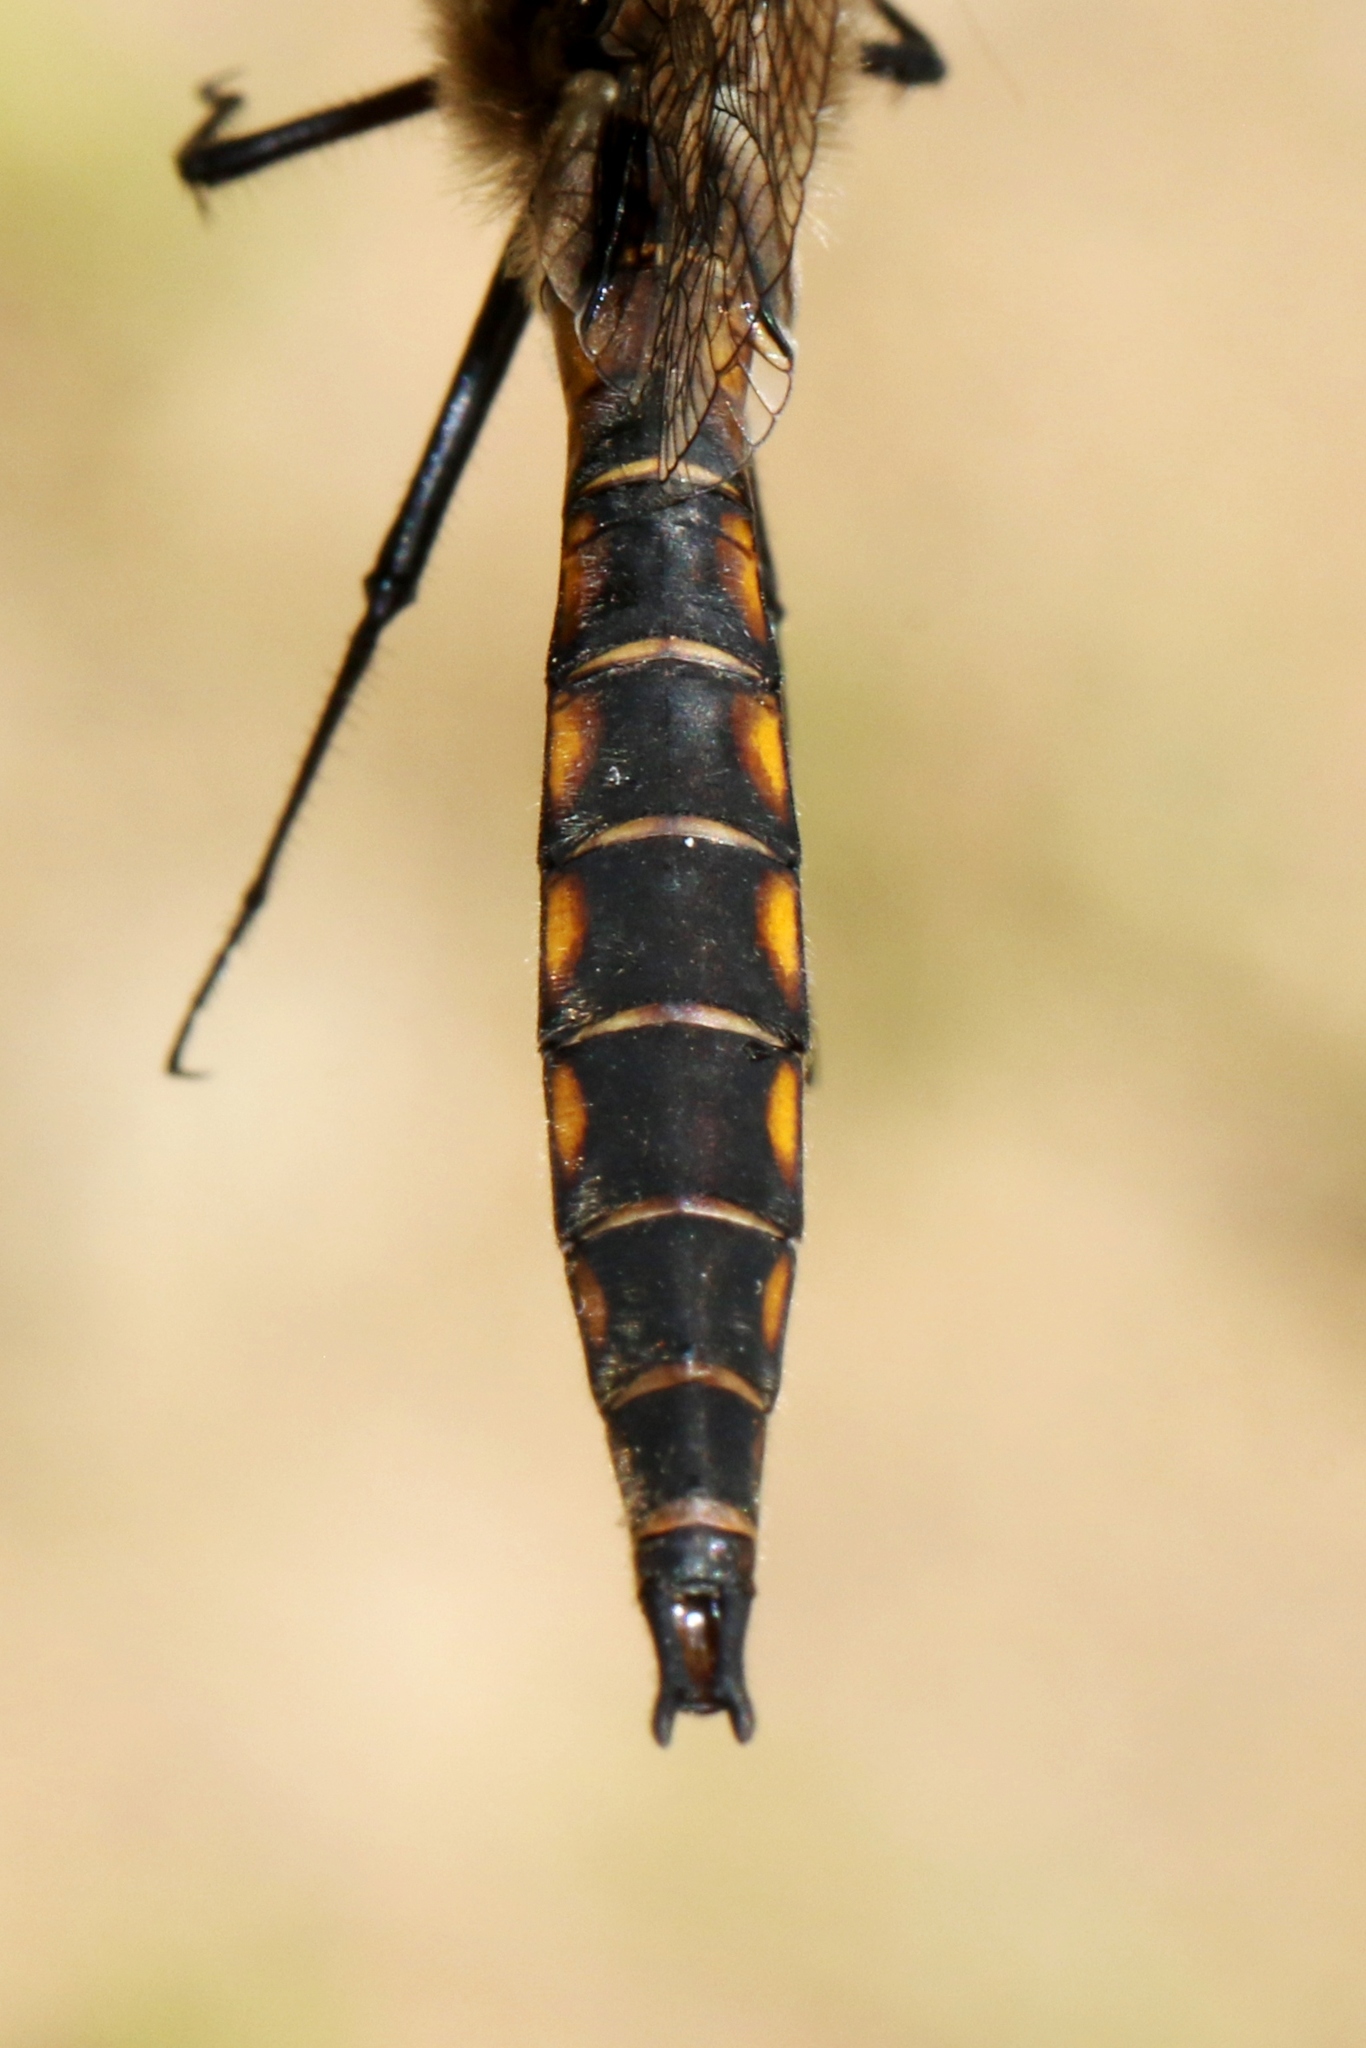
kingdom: Animalia
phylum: Arthropoda
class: Insecta
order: Odonata
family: Corduliidae
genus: Epitheca
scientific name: Epitheca canis
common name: Beaverpond baskettail
